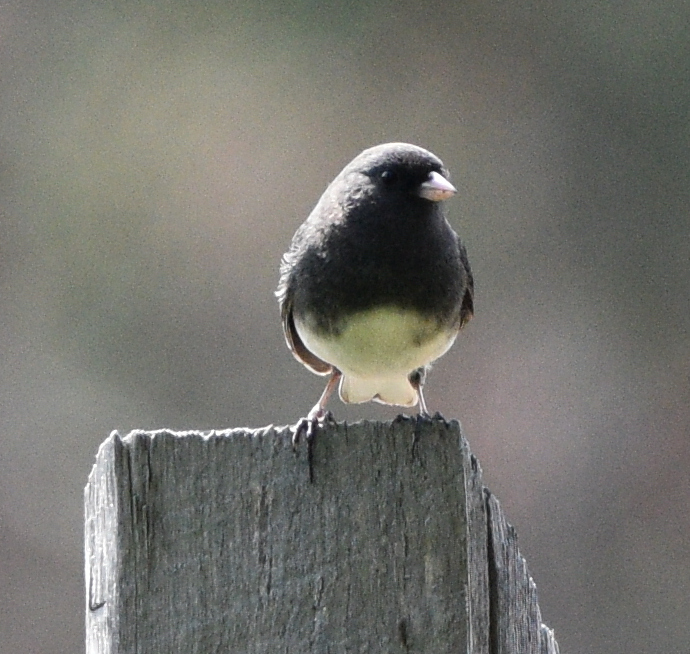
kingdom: Animalia
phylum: Chordata
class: Aves
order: Passeriformes
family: Passerellidae
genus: Junco
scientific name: Junco hyemalis
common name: Dark-eyed junco
